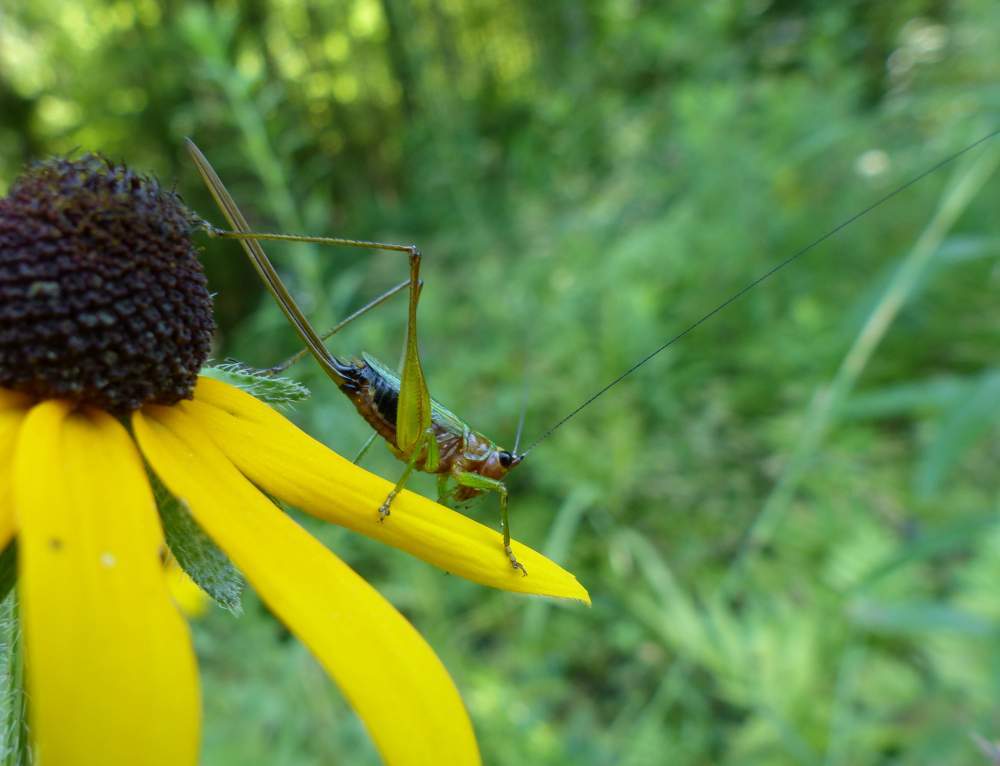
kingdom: Animalia
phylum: Arthropoda
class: Insecta
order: Orthoptera
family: Tettigoniidae
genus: Conocephalus
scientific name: Conocephalus nigropleurum
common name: Black-sided meadow katydid
